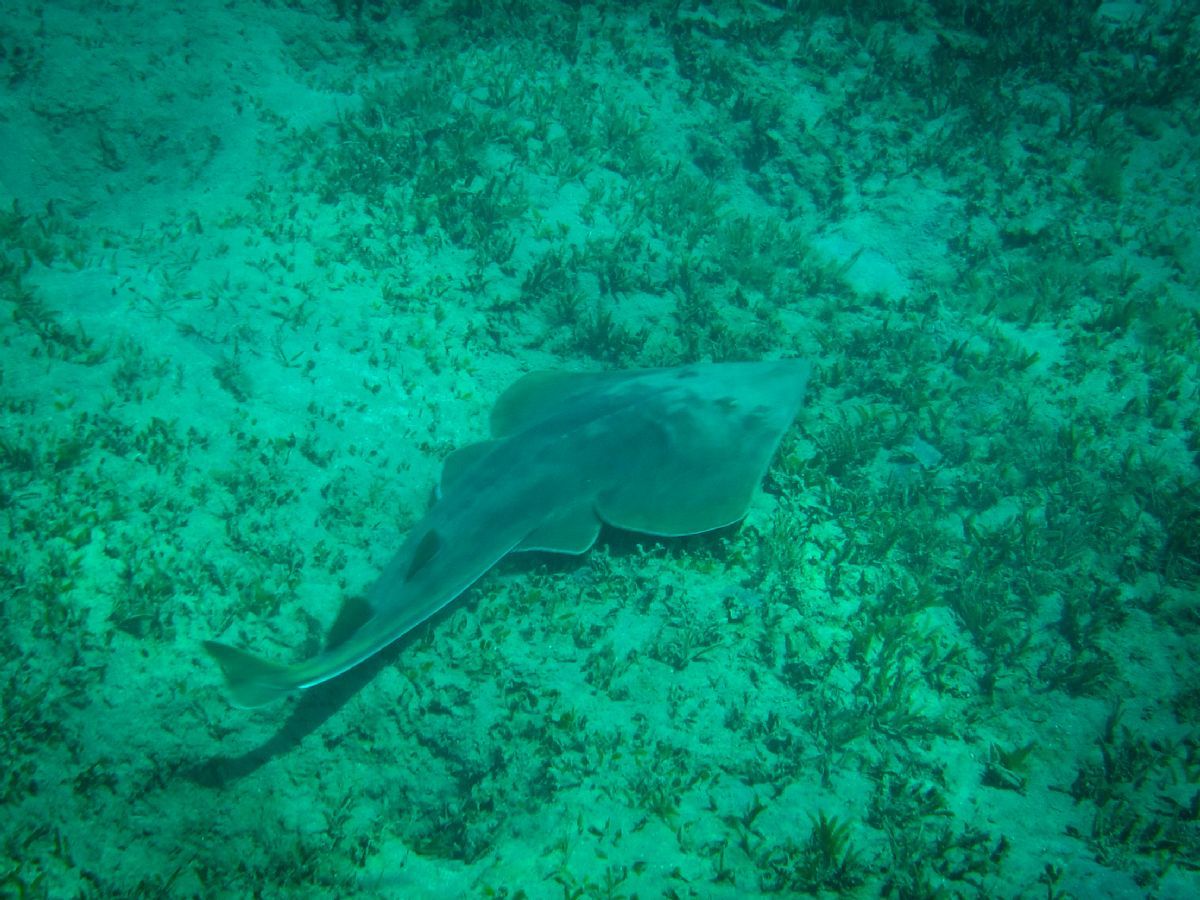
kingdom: Animalia
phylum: Chordata
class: Elasmobranchii
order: Rhinopristiformes
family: Glaucostegidae
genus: Glaucostegus
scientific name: Glaucostegus halavi
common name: Halavi guitarfish
